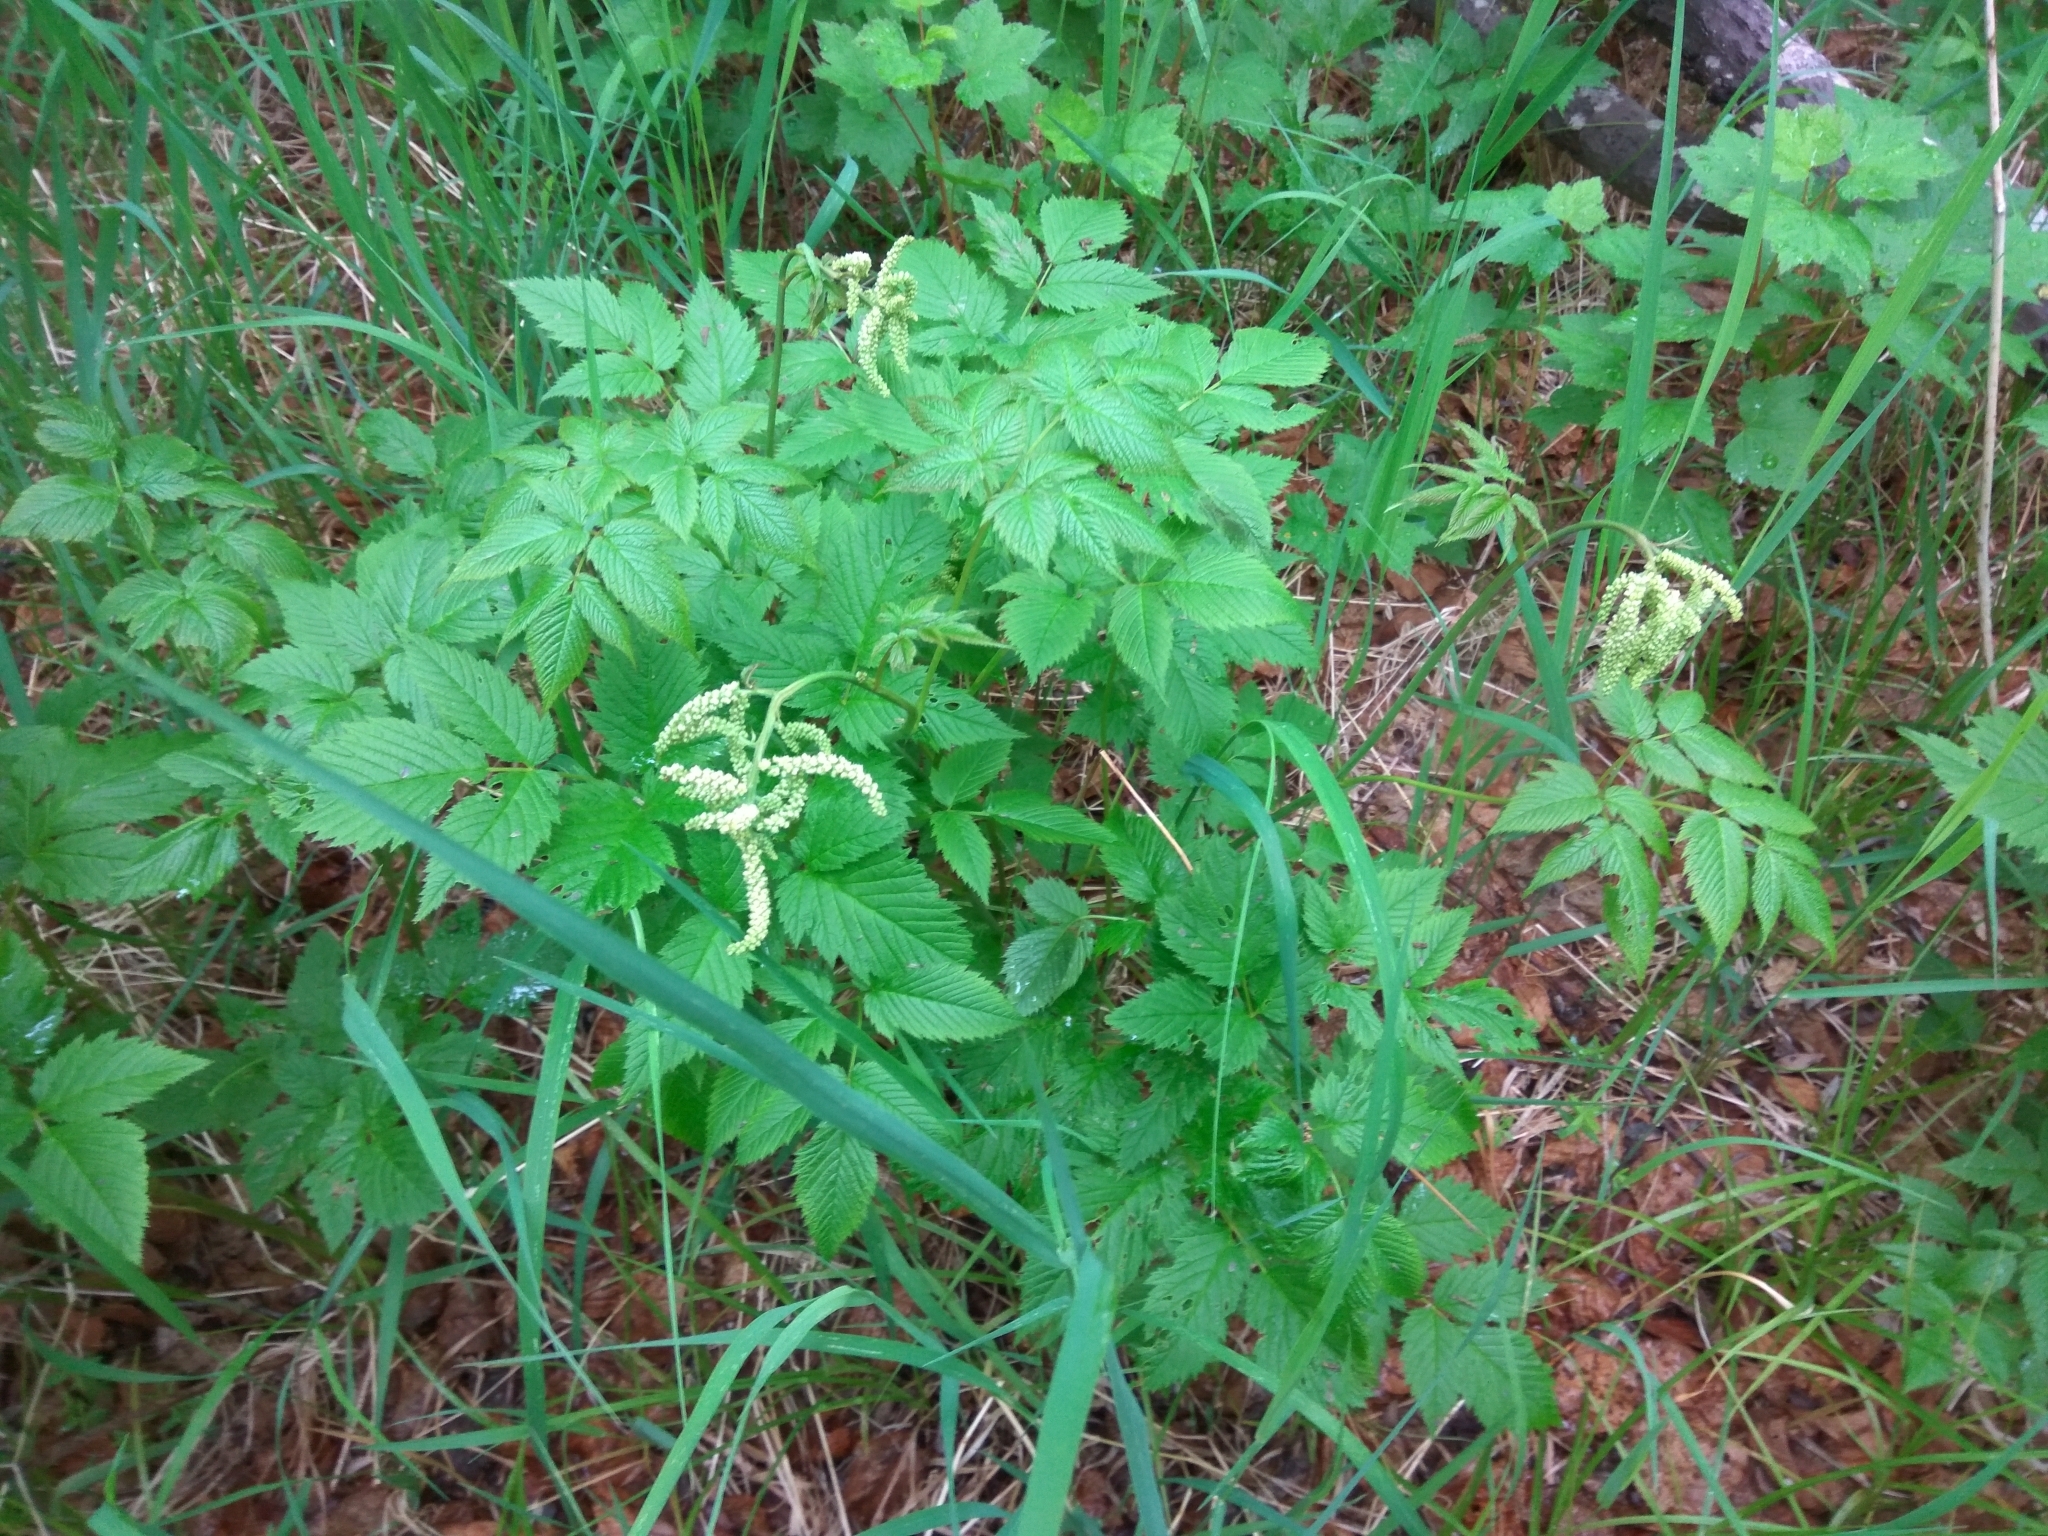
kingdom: Plantae
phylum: Tracheophyta
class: Magnoliopsida
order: Rosales
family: Rosaceae
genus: Aruncus
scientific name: Aruncus dioicus
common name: Buck's-beard
